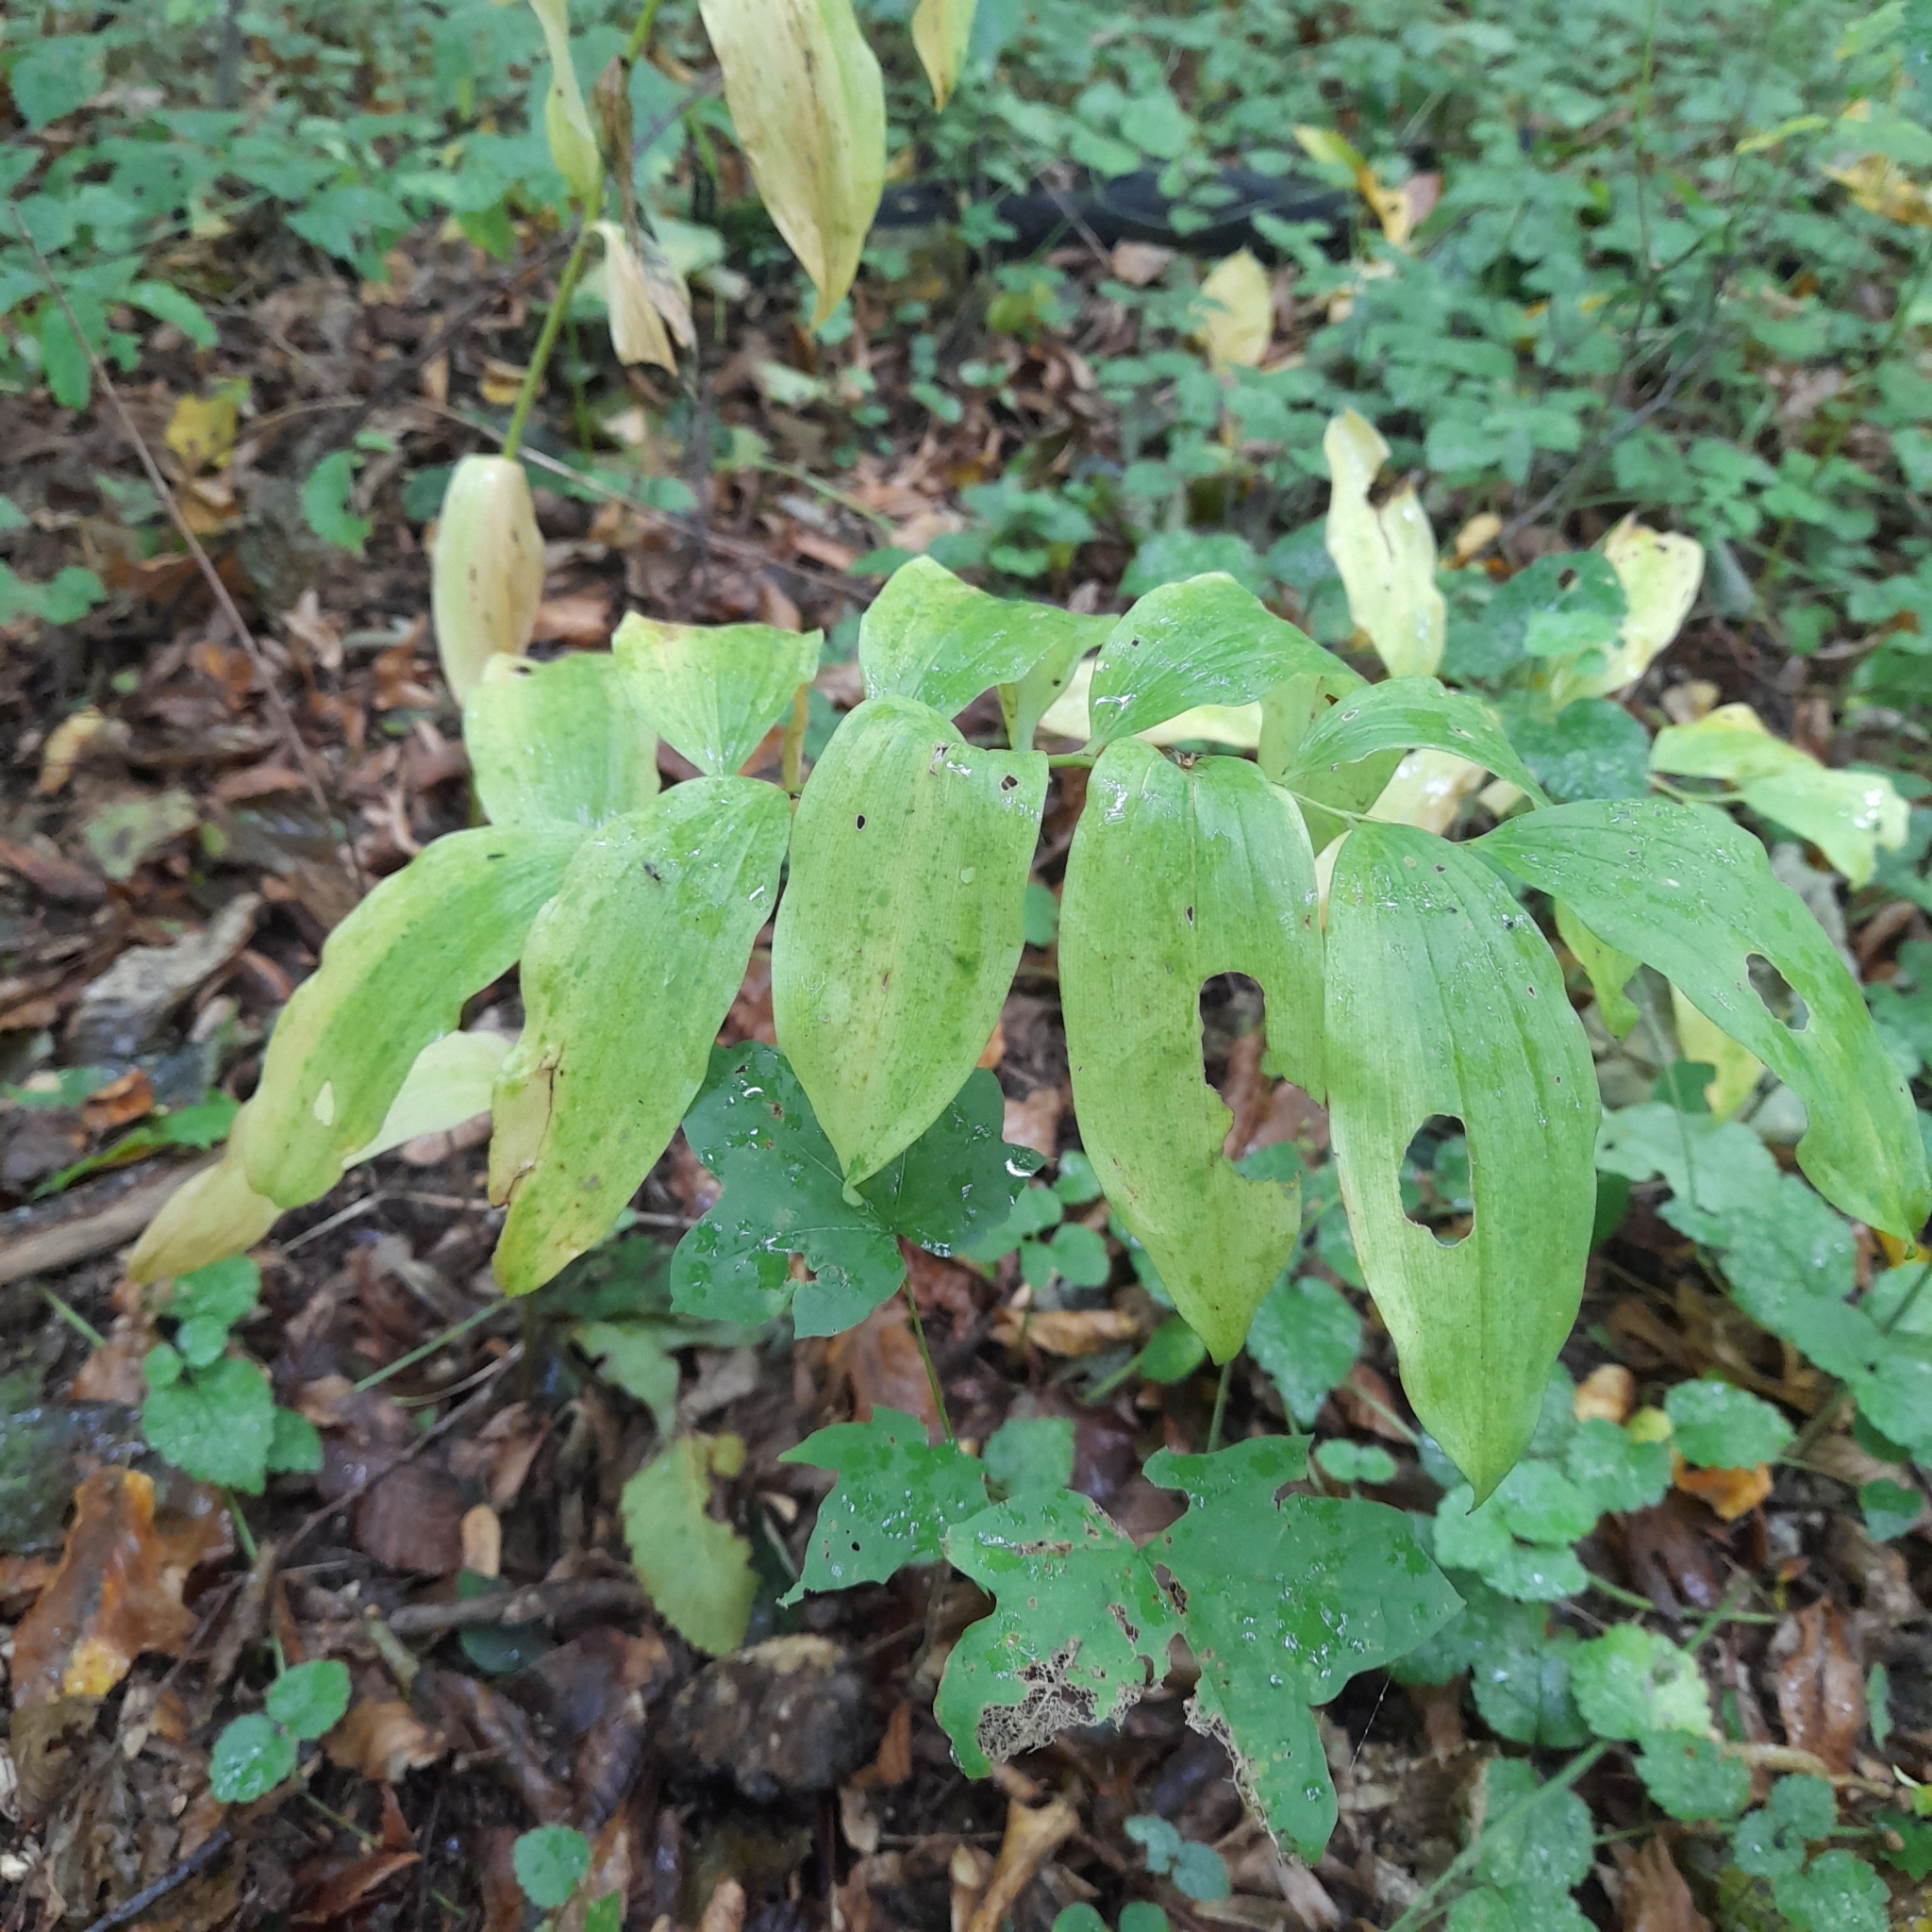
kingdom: Plantae
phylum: Tracheophyta
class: Liliopsida
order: Asparagales
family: Asparagaceae
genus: Polygonatum
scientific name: Polygonatum multiflorum
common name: Solomon's-seal
